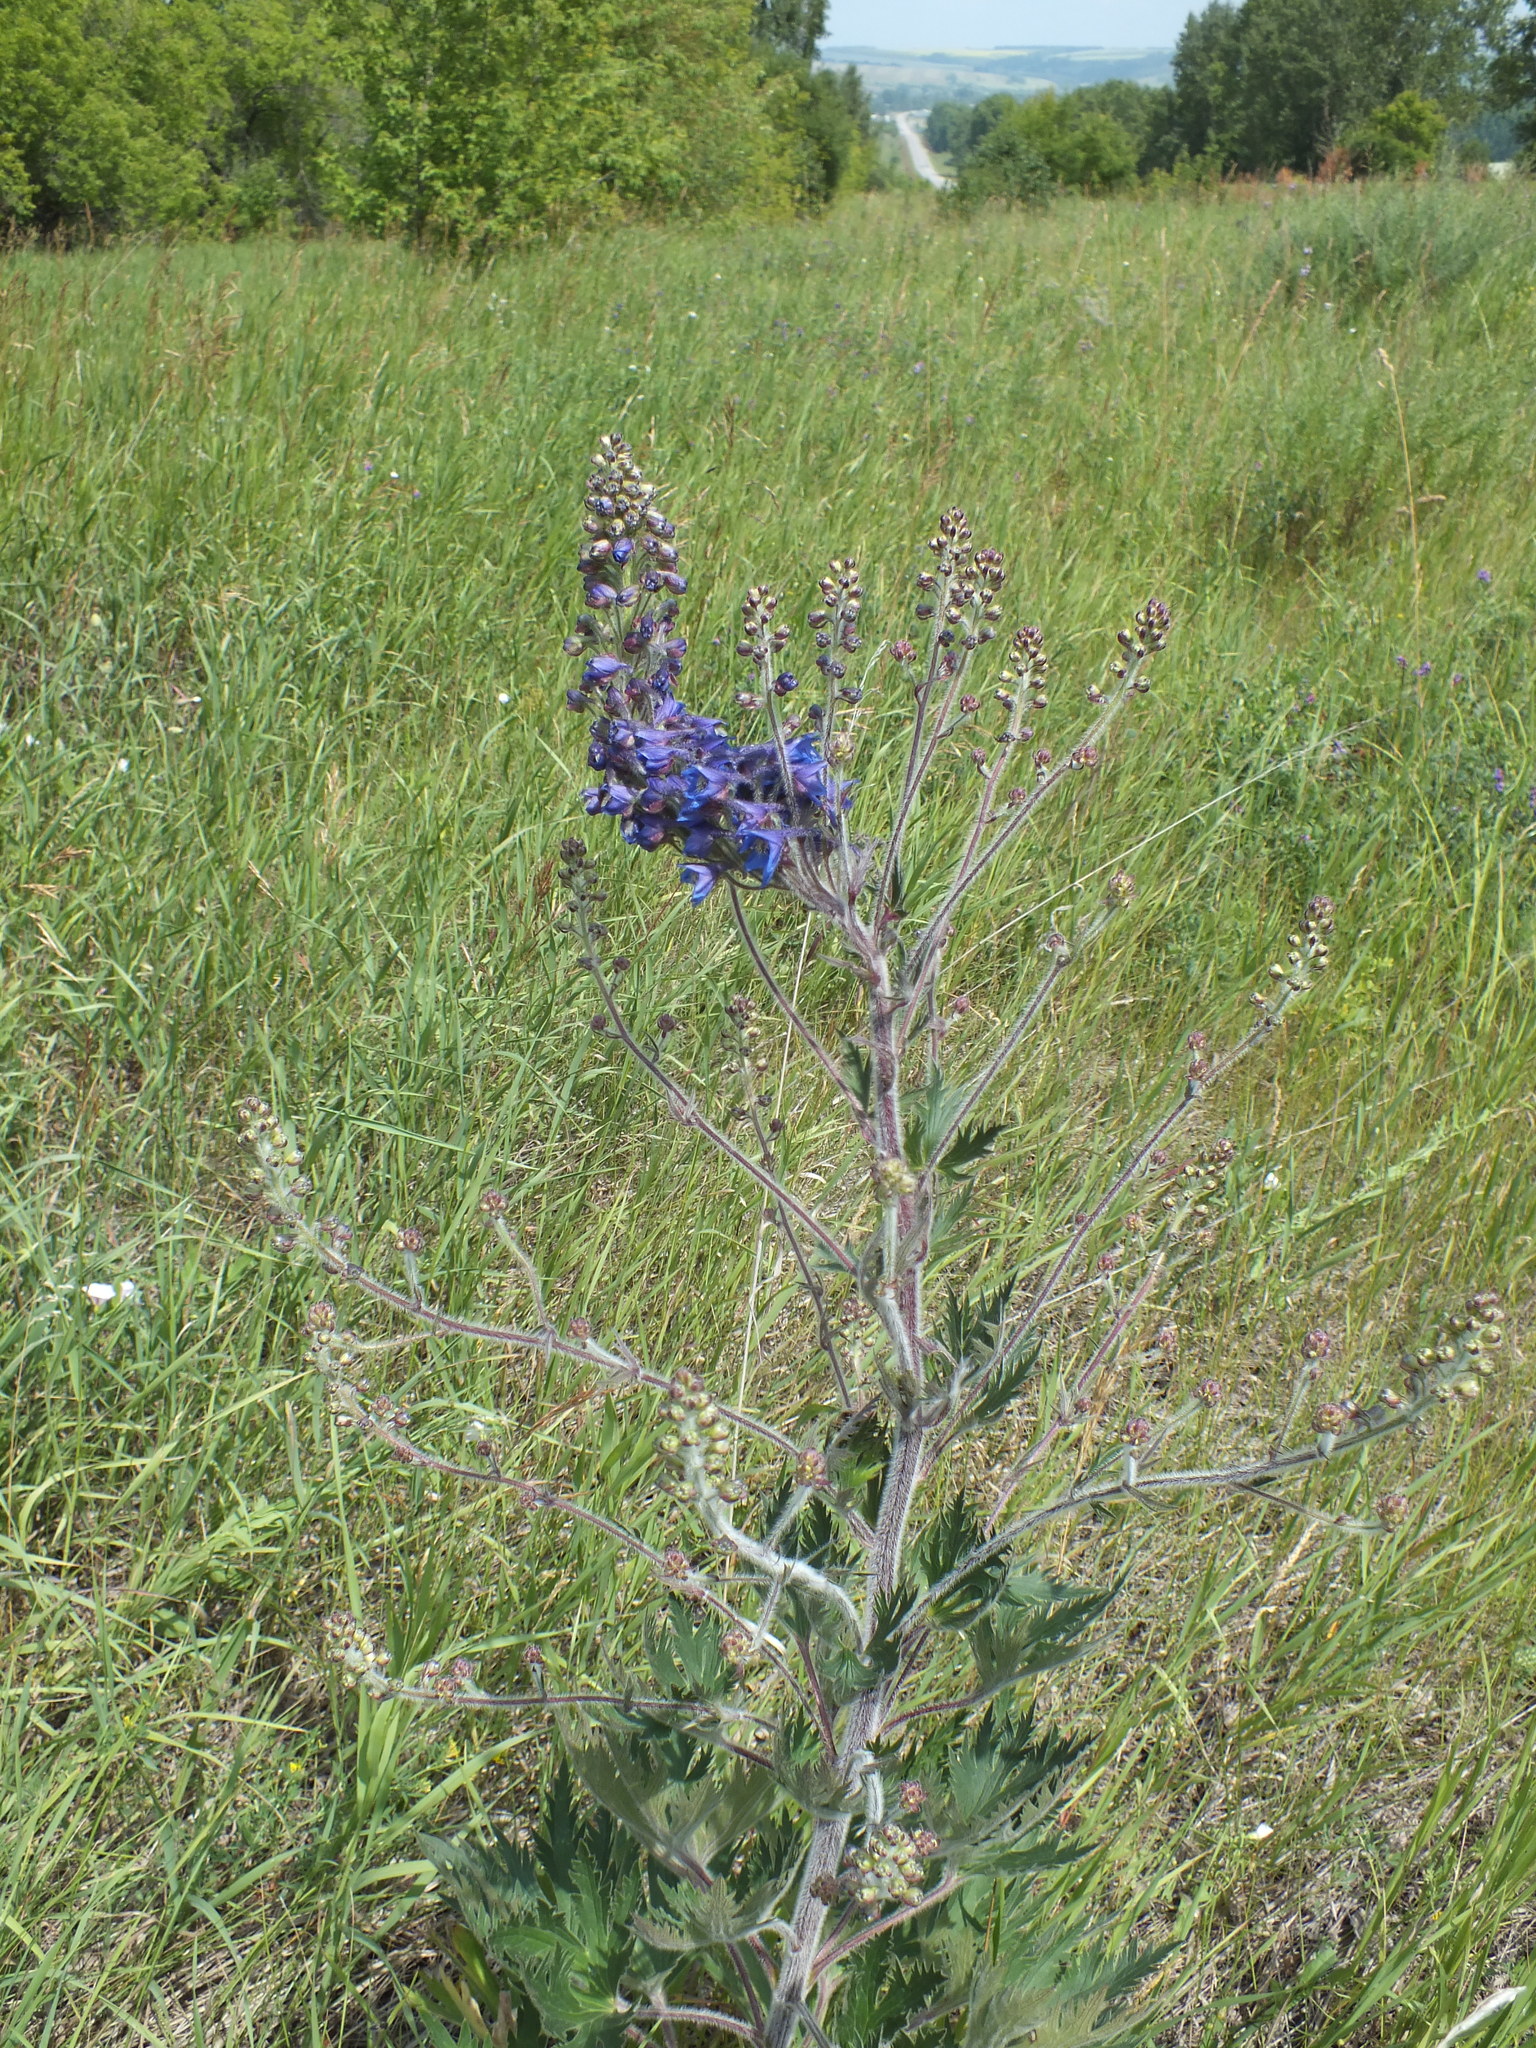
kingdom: Plantae
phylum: Tracheophyta
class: Magnoliopsida
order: Ranunculales
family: Ranunculaceae
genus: Delphinium
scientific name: Delphinium retropilosum
